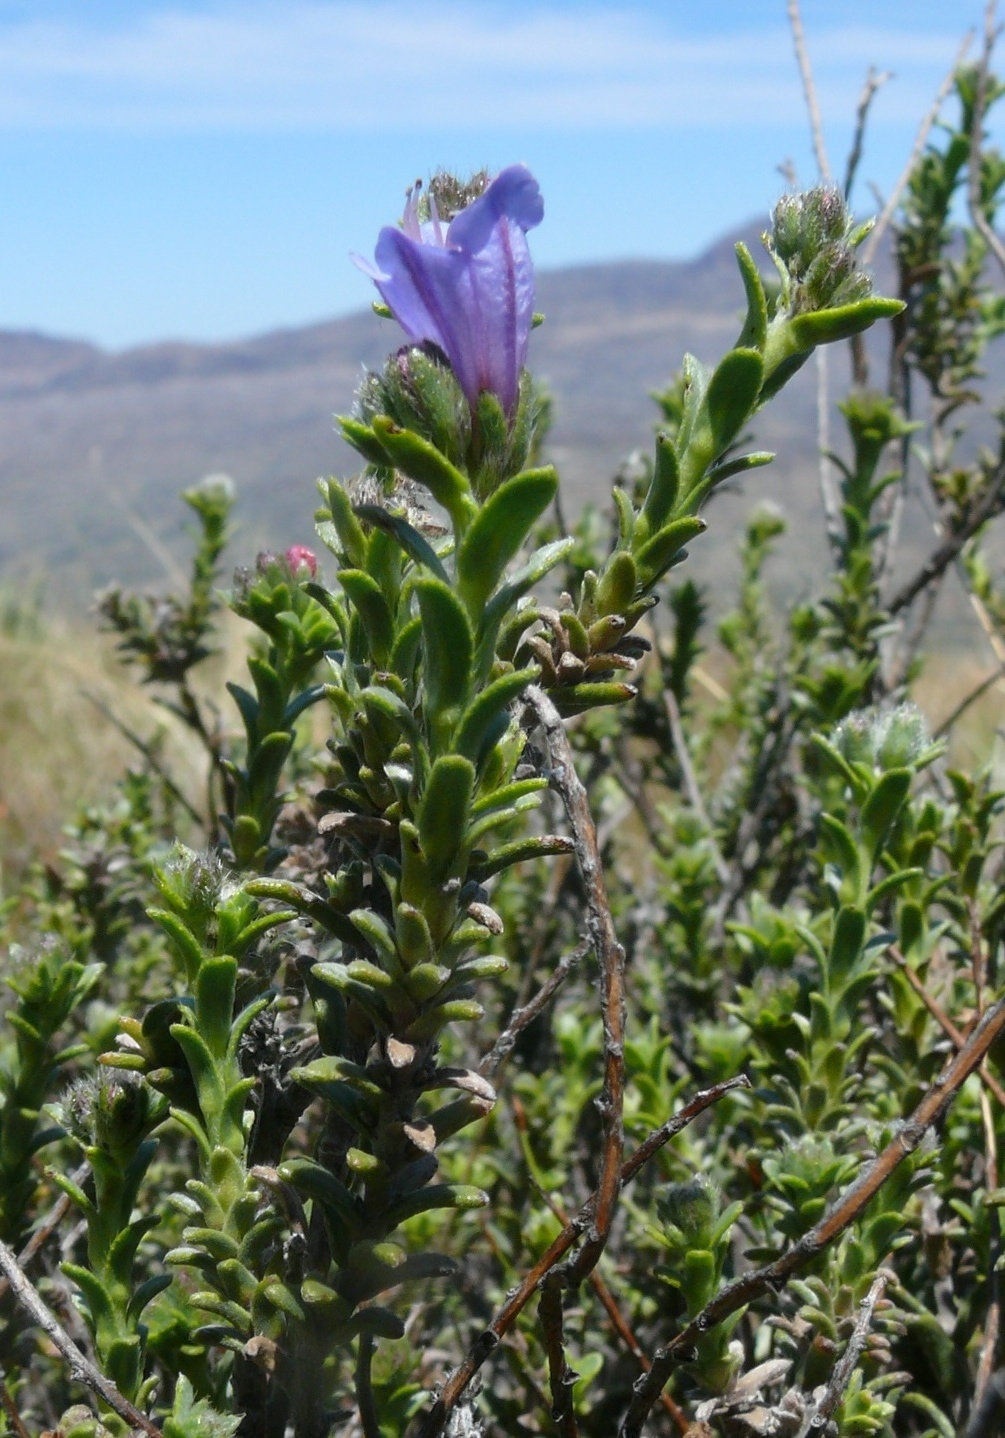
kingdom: Plantae
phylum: Tracheophyta
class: Magnoliopsida
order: Boraginales
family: Boraginaceae
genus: Lobostemon
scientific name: Lobostemon trichotomus
